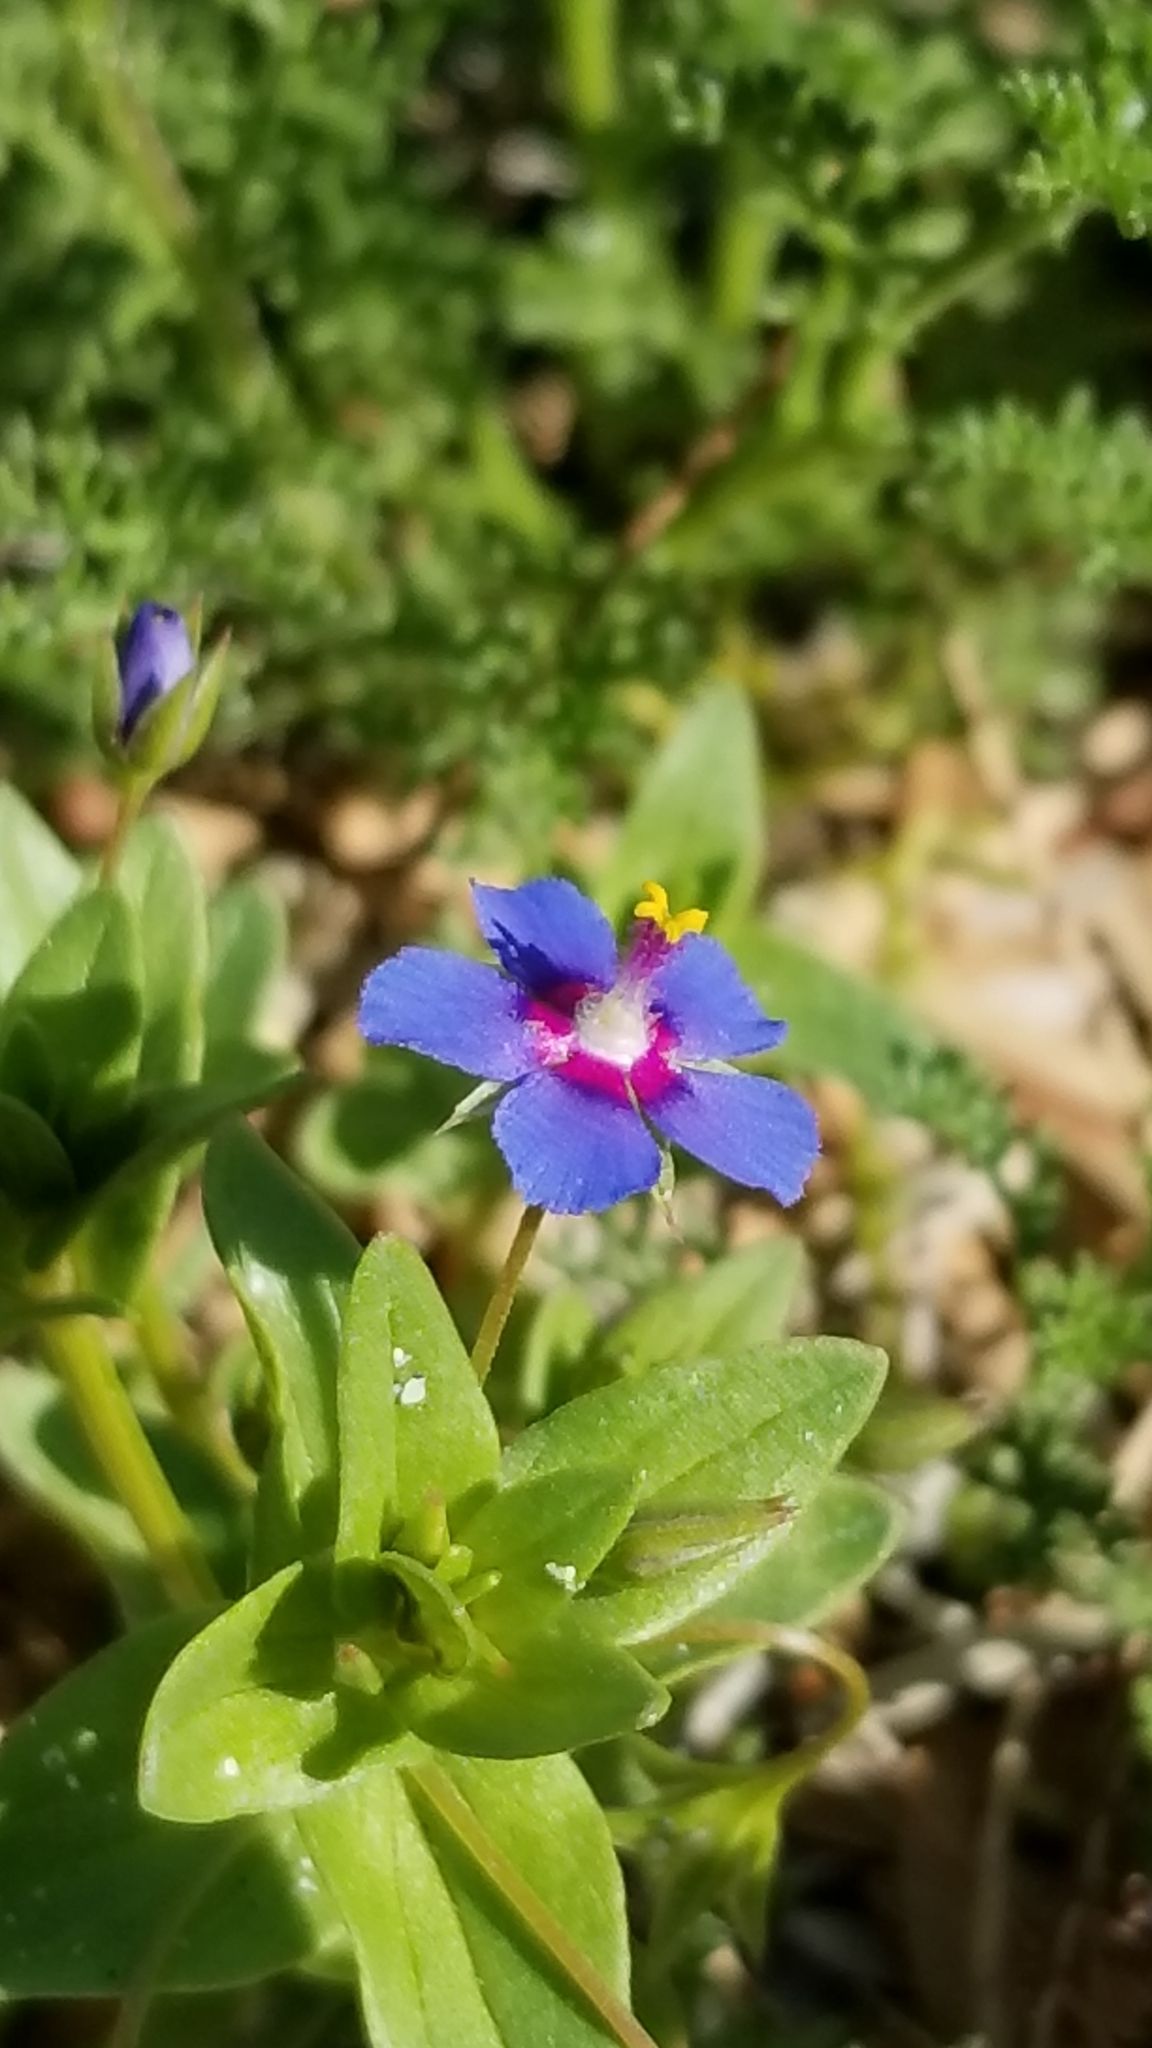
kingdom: Plantae
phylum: Tracheophyta
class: Magnoliopsida
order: Ericales
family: Primulaceae
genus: Lysimachia
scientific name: Lysimachia loeflingii
